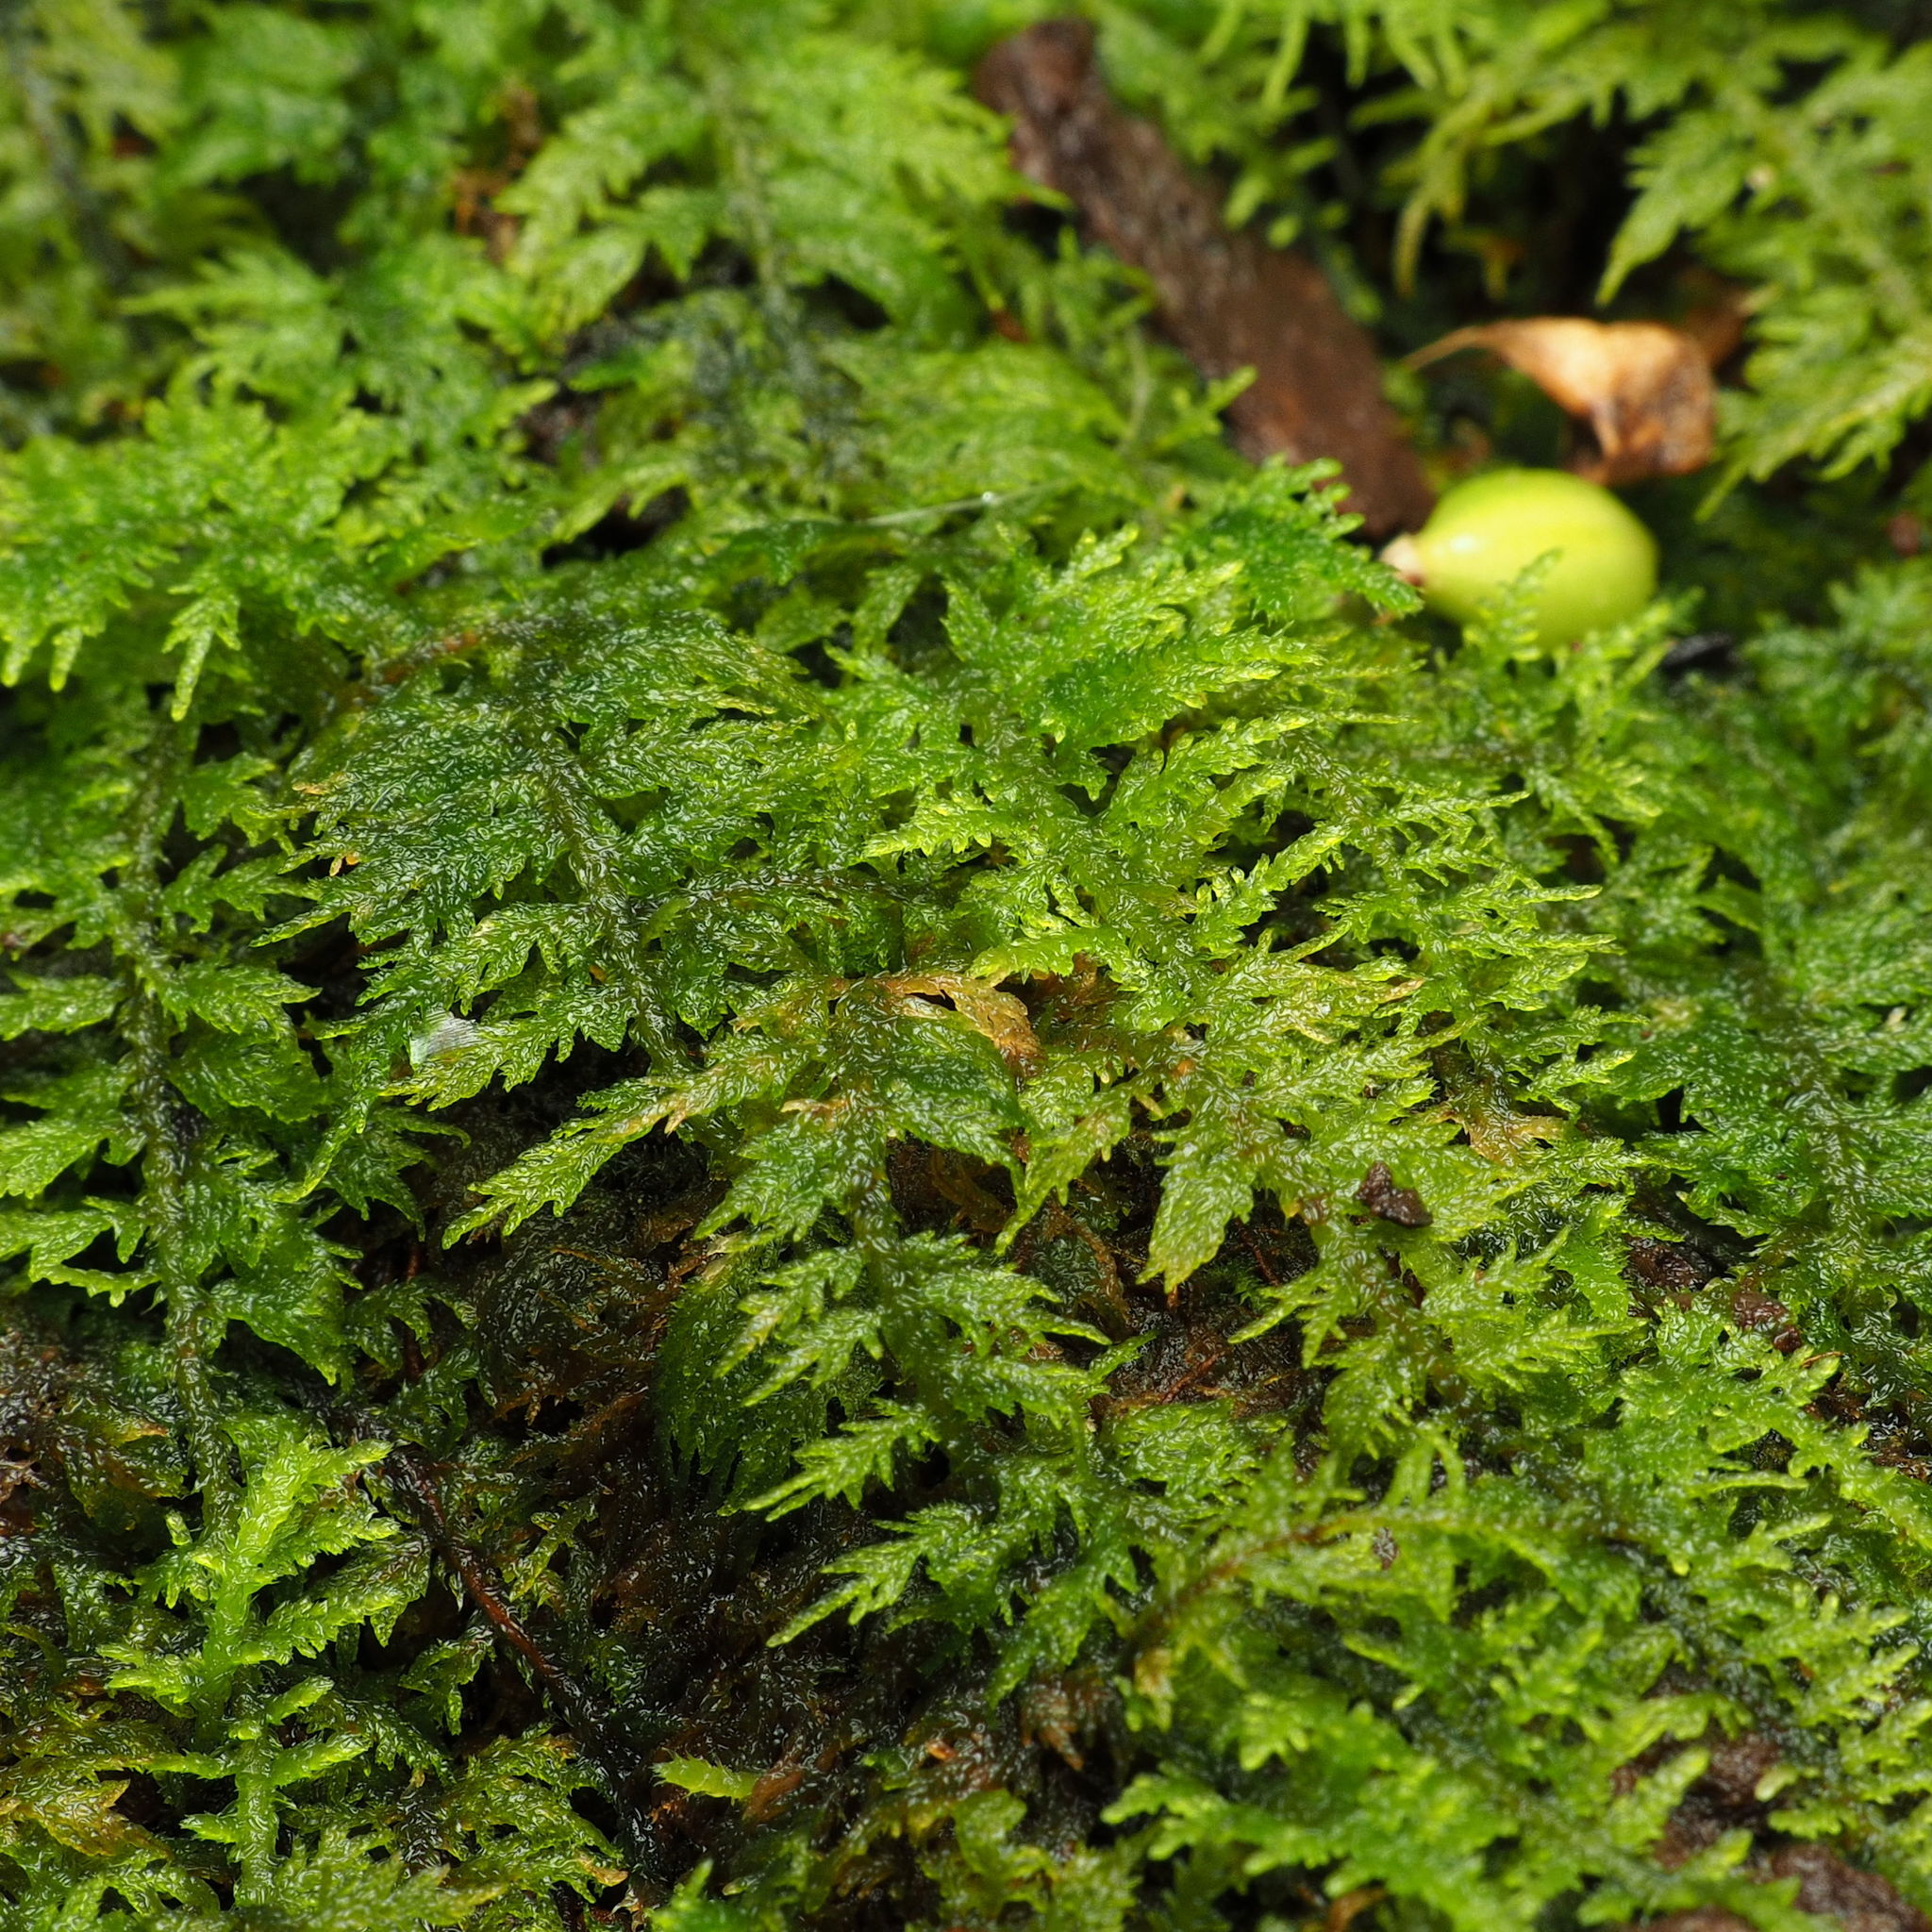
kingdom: Plantae
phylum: Bryophyta
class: Bryopsida
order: Hypnales
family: Thuidiaceae
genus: Thuidium
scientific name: Thuidium delicatulum
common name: Delicate fern moss
